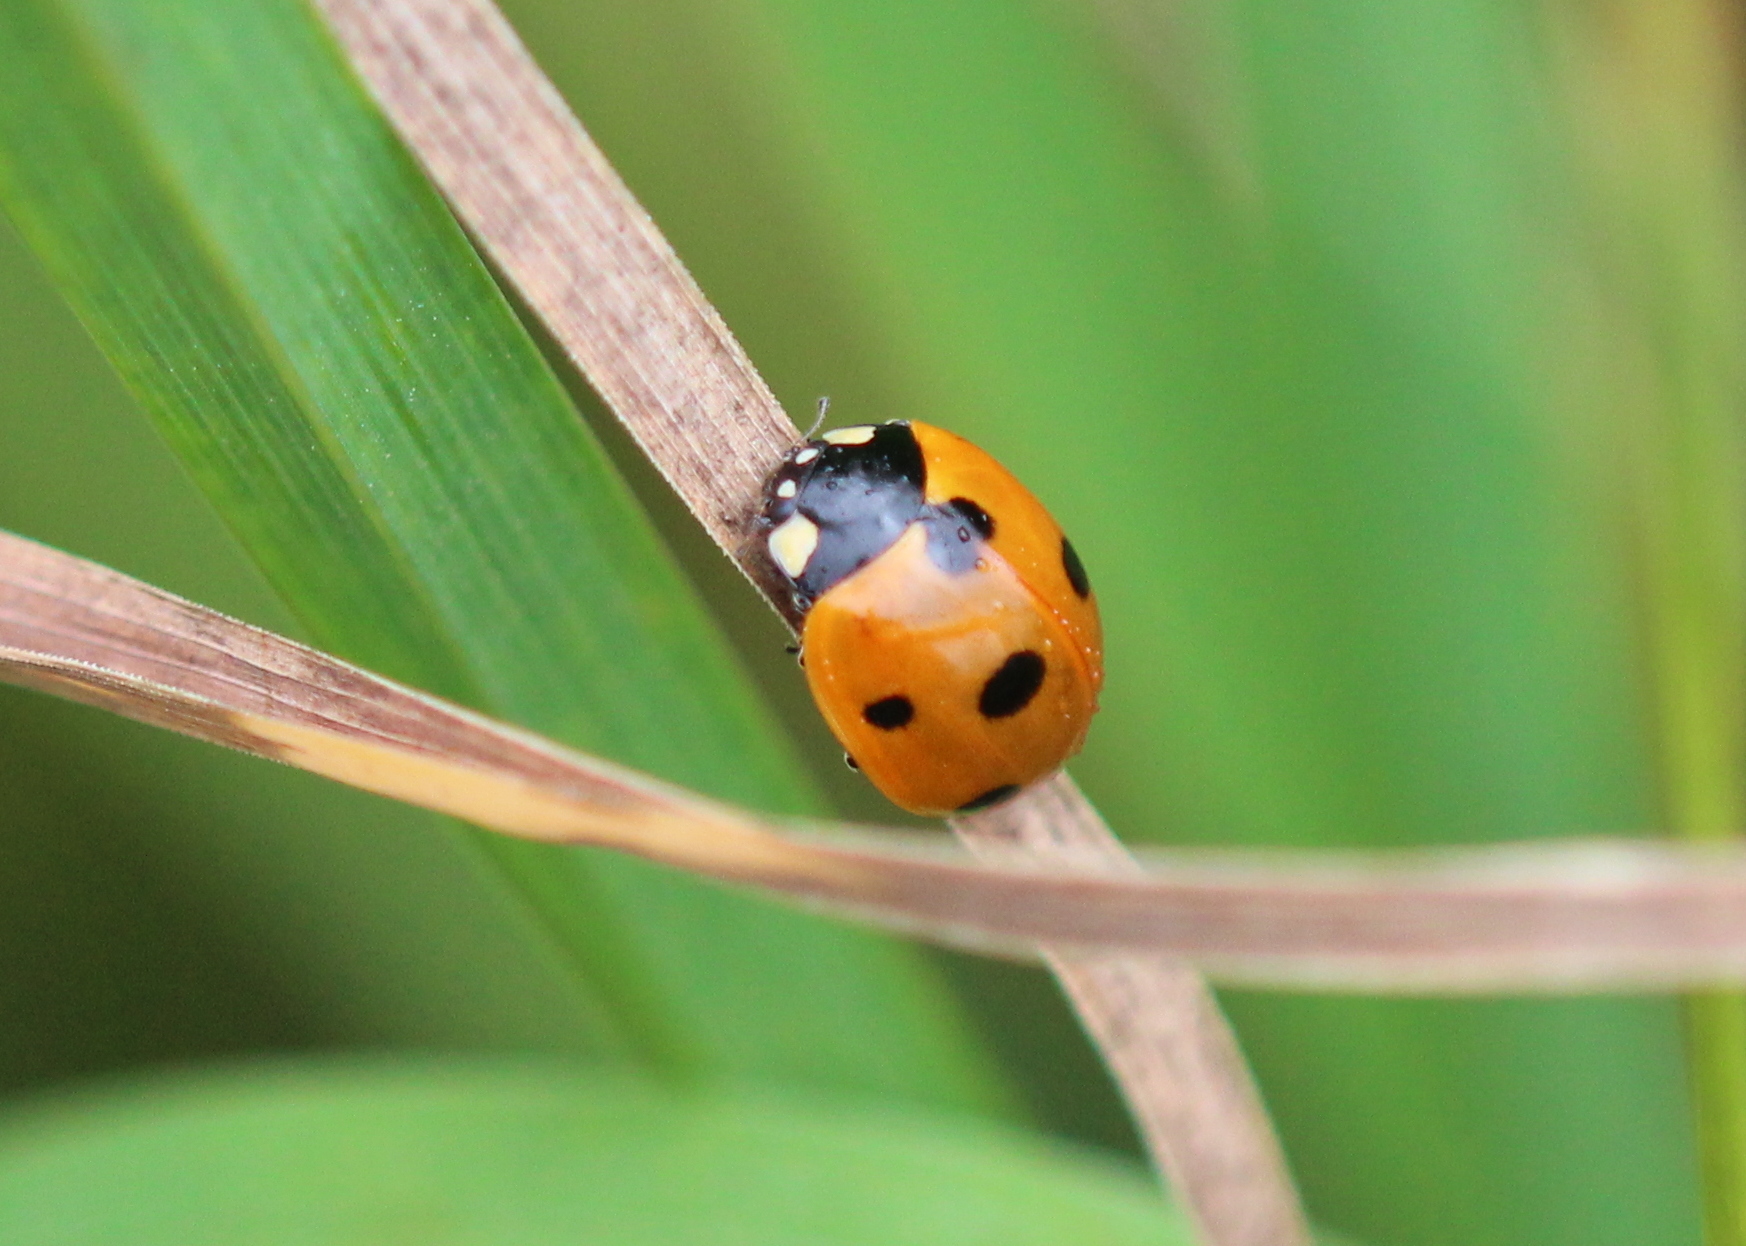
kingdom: Animalia
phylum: Arthropoda
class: Insecta
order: Coleoptera
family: Coccinellidae
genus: Coccinella
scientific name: Coccinella septempunctata
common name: Sevenspotted lady beetle
